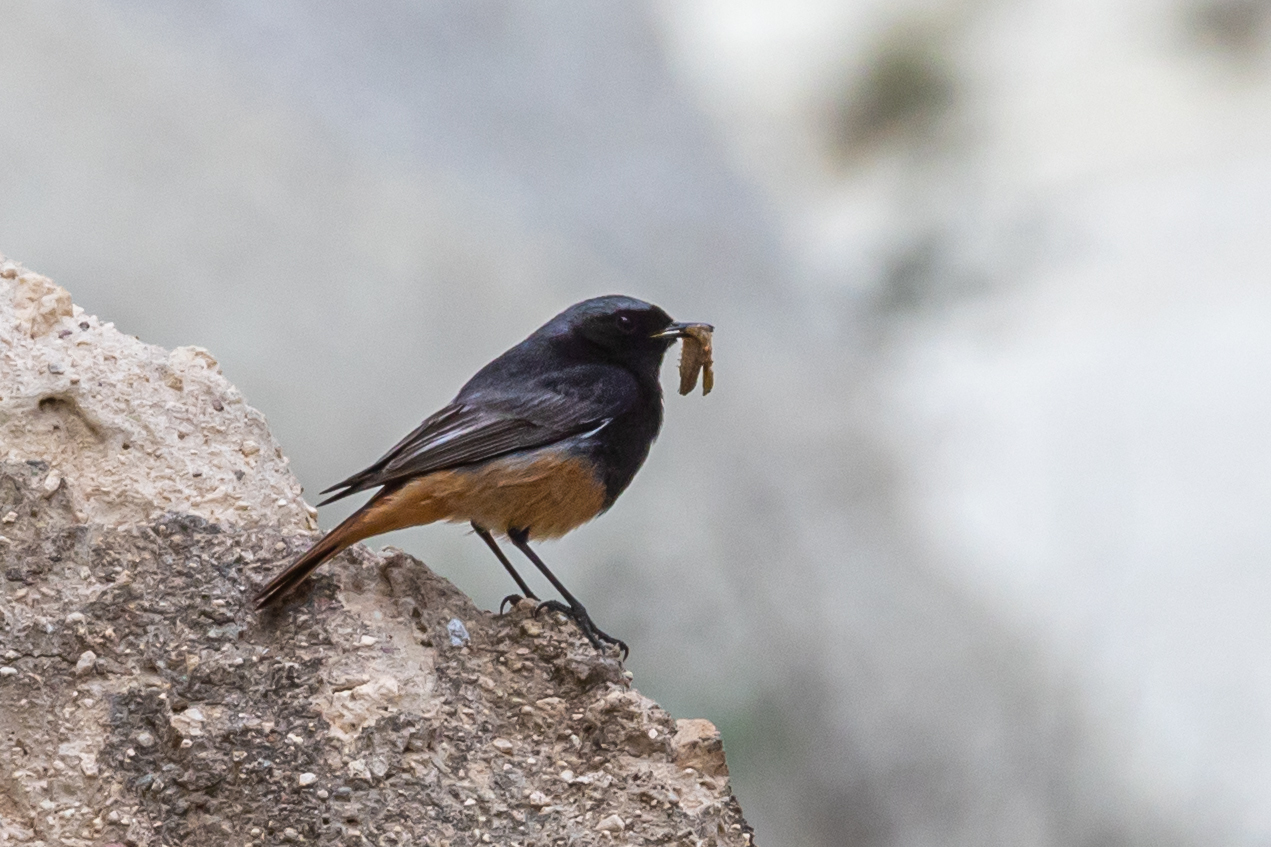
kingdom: Animalia
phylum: Chordata
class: Aves
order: Passeriformes
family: Muscicapidae
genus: Phoenicurus
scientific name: Phoenicurus ochruros
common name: Black redstart
